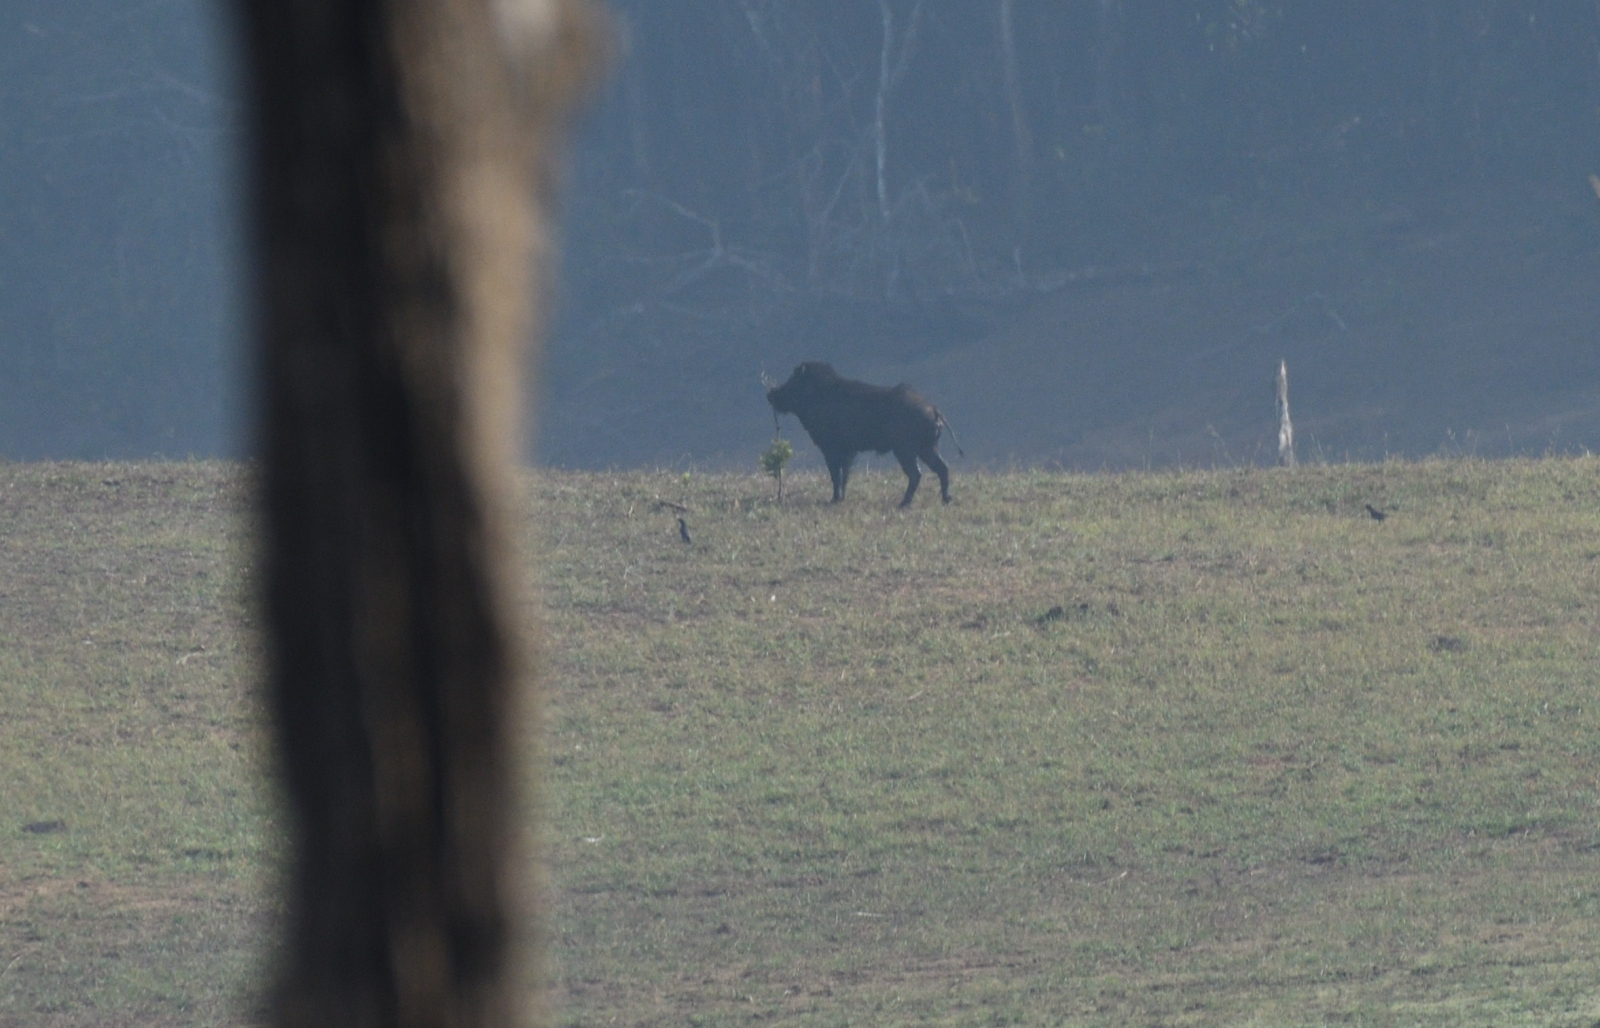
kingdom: Animalia
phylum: Chordata
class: Mammalia
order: Artiodactyla
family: Suidae
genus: Sus
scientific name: Sus scrofa
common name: Wild boar
